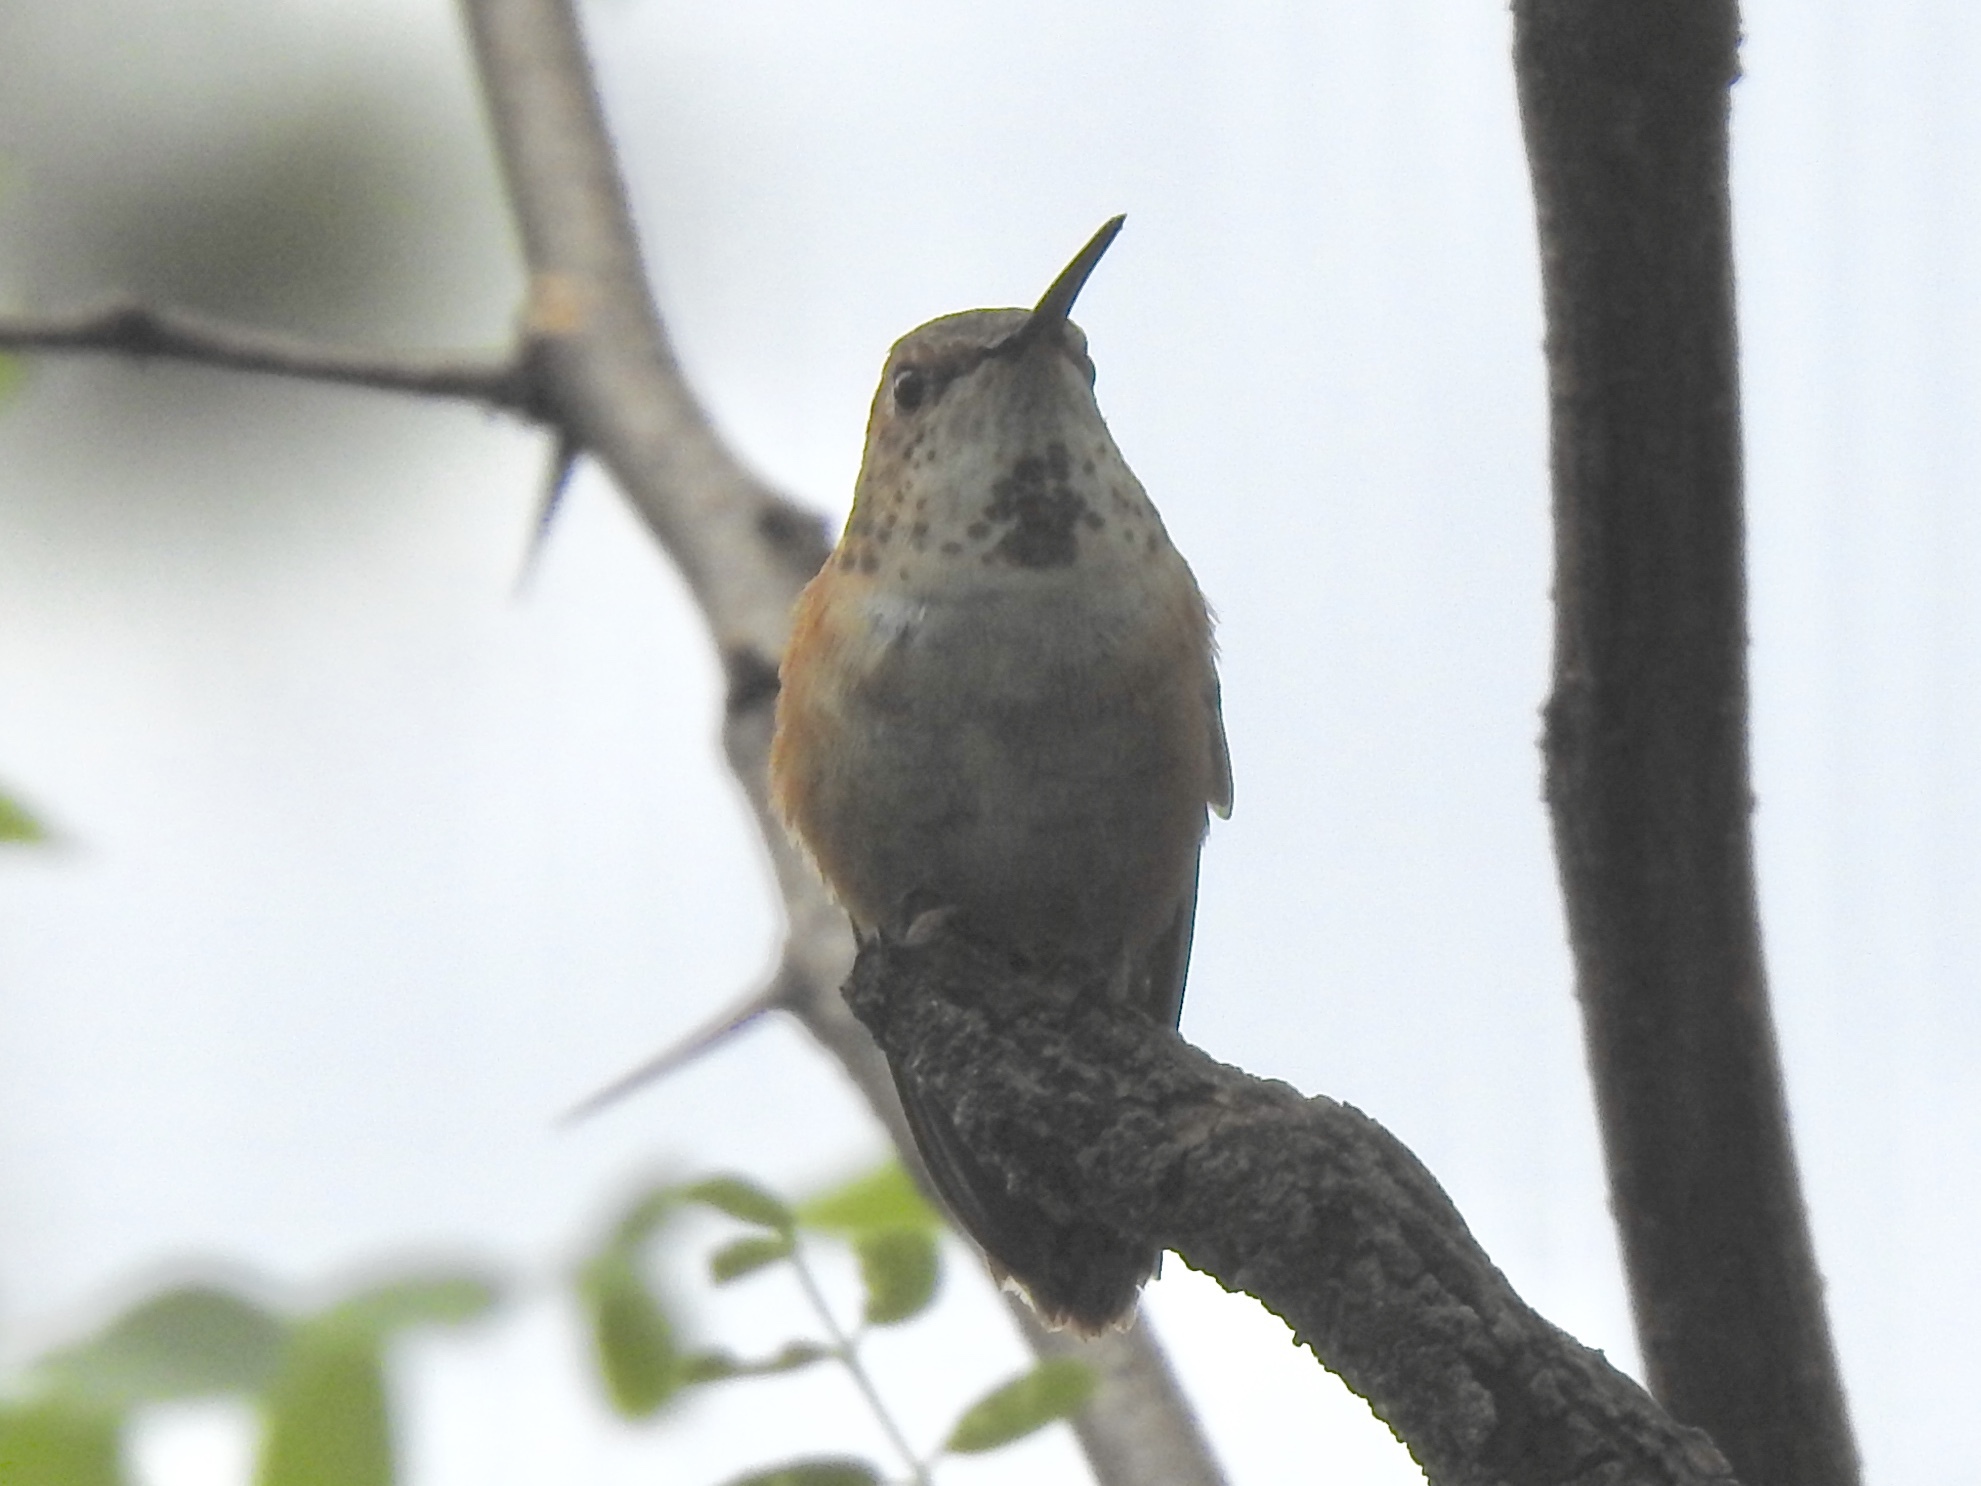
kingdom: Animalia
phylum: Chordata
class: Aves
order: Apodiformes
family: Trochilidae
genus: Selasphorus
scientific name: Selasphorus rufus
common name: Rufous hummingbird
